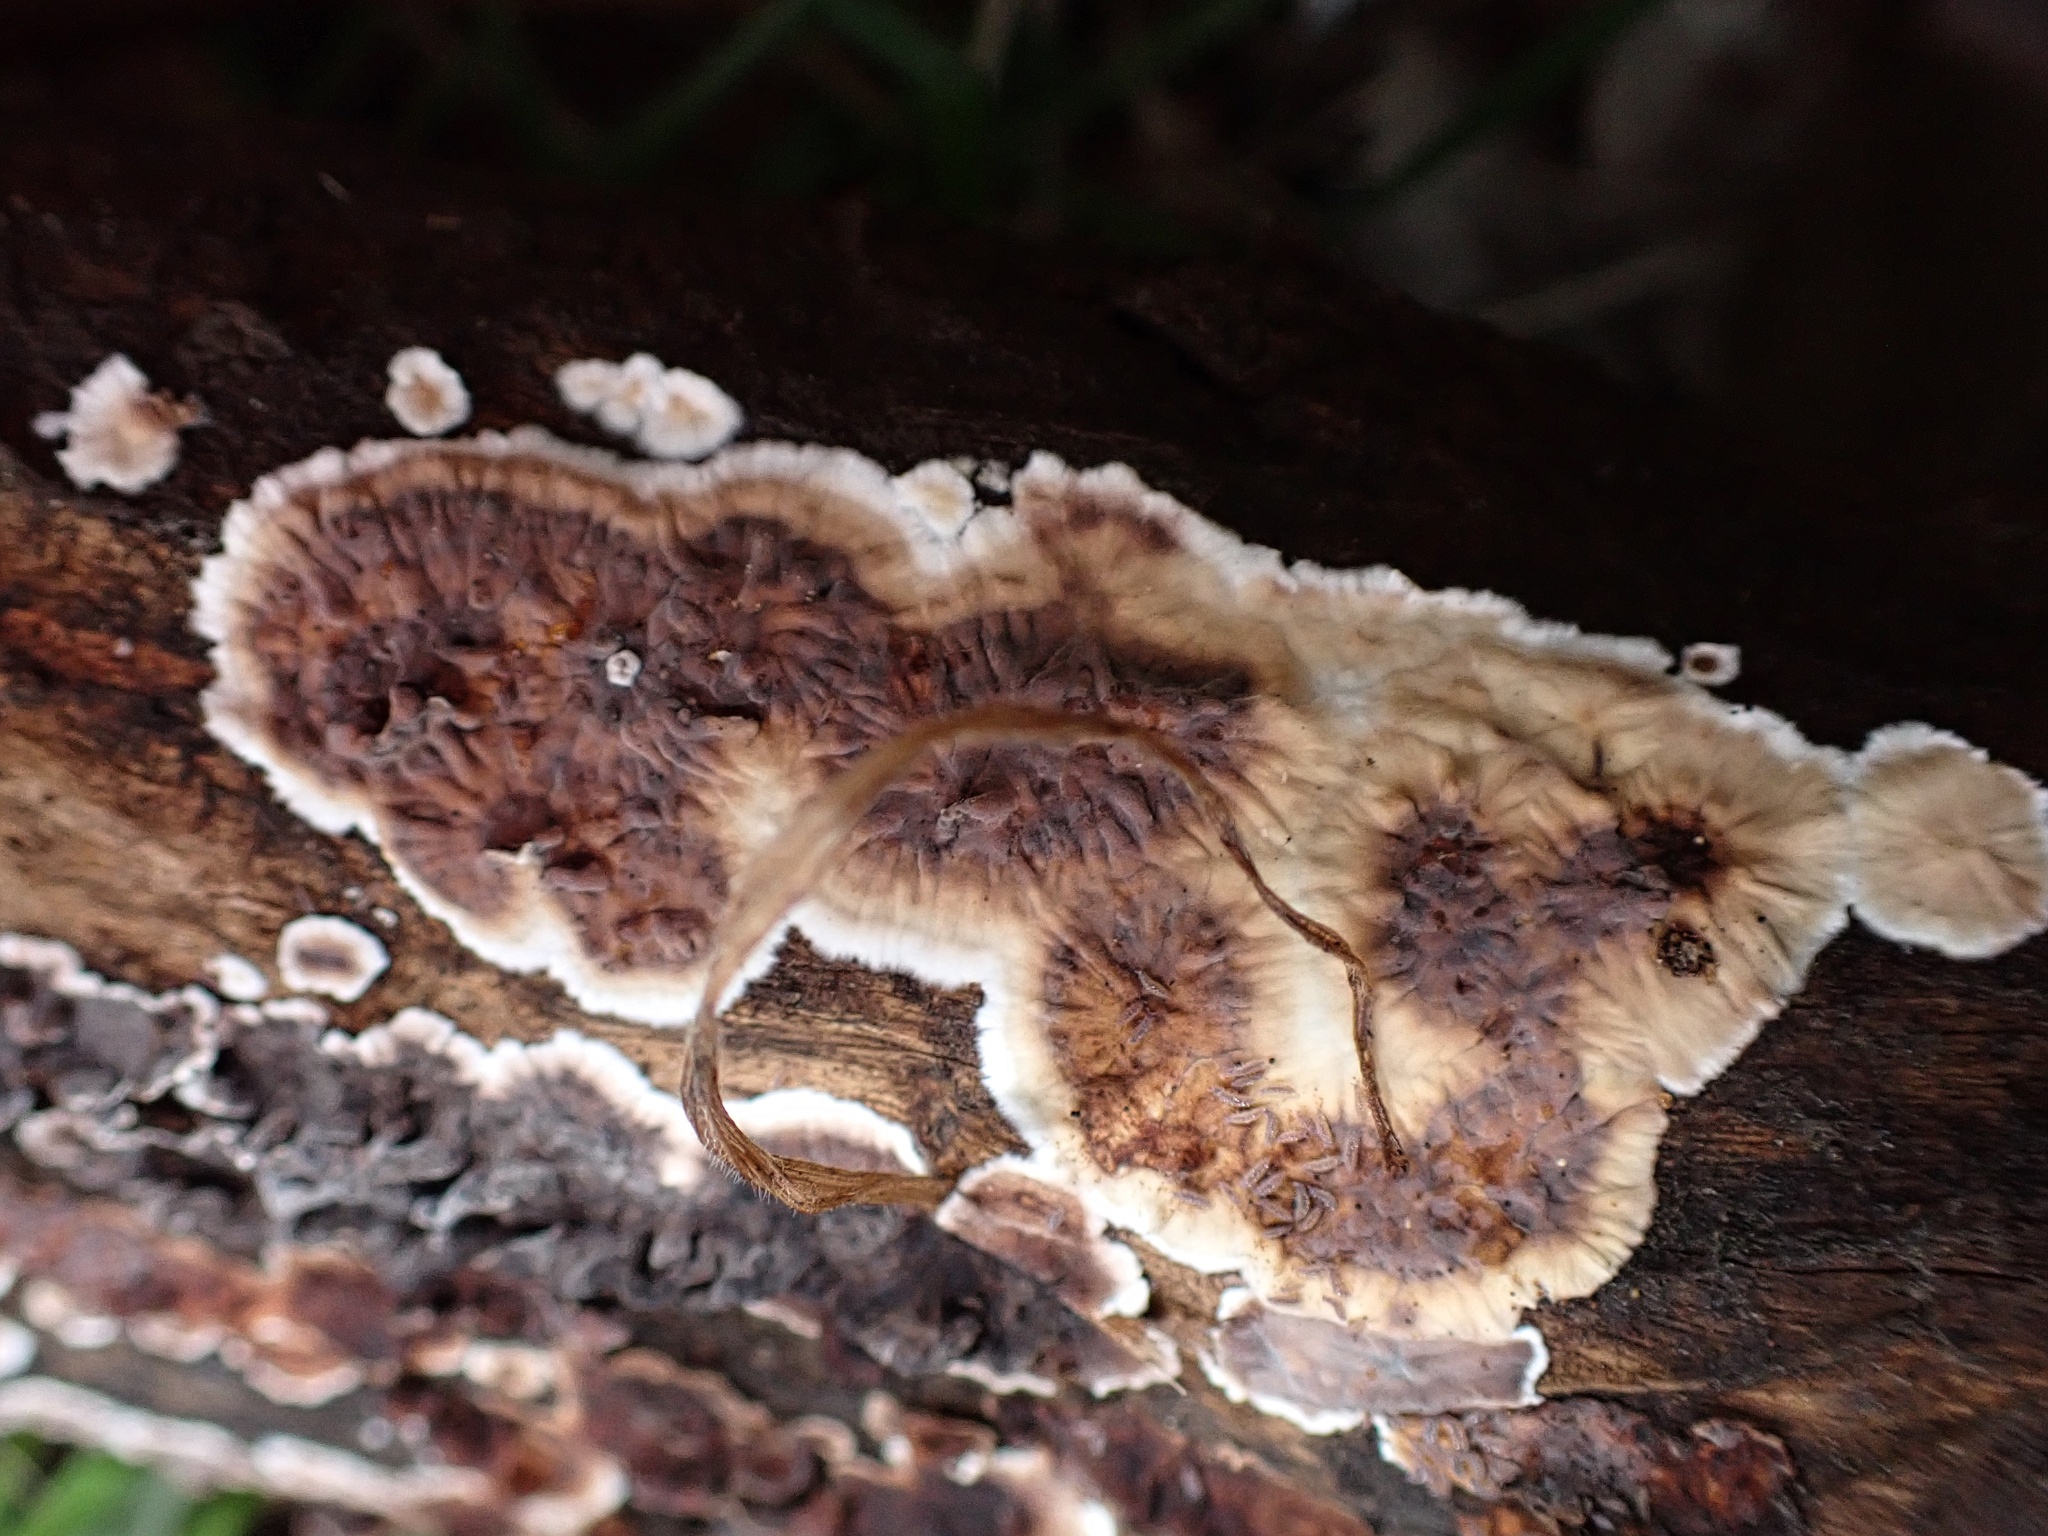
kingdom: Fungi
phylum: Basidiomycota
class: Agaricomycetes
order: Russulales
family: Peniophoraceae
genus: Peniophora
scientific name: Peniophora albobadia
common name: Giraffe spots
